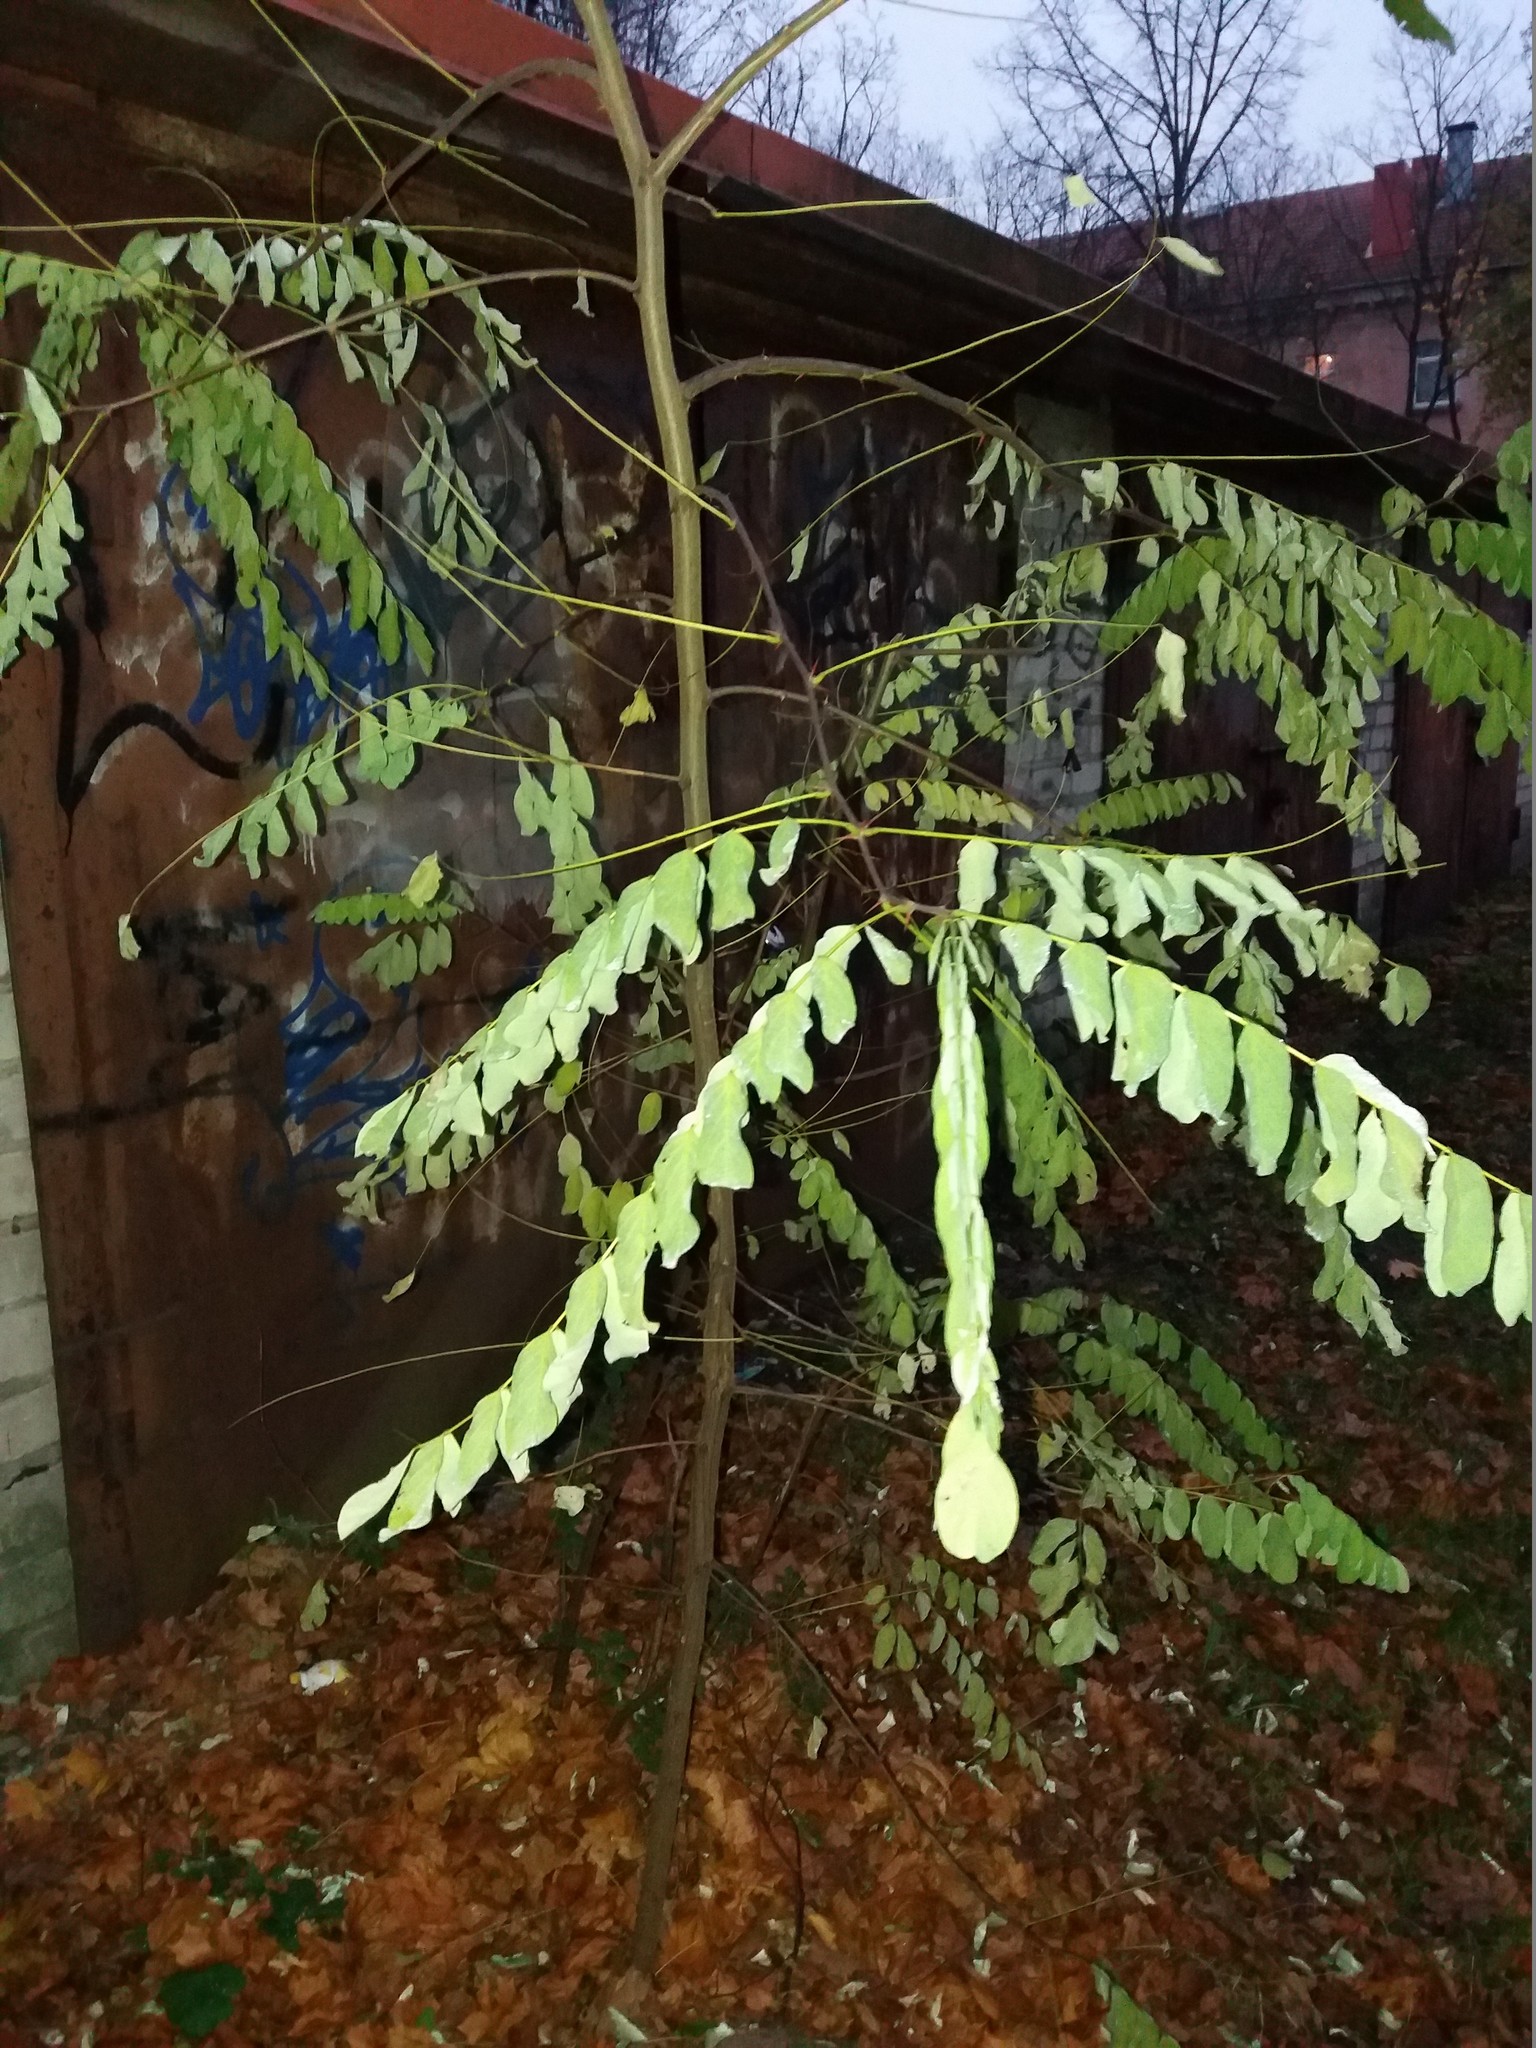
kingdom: Plantae
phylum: Tracheophyta
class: Magnoliopsida
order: Fabales
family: Fabaceae
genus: Robinia
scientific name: Robinia pseudoacacia
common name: Black locust
